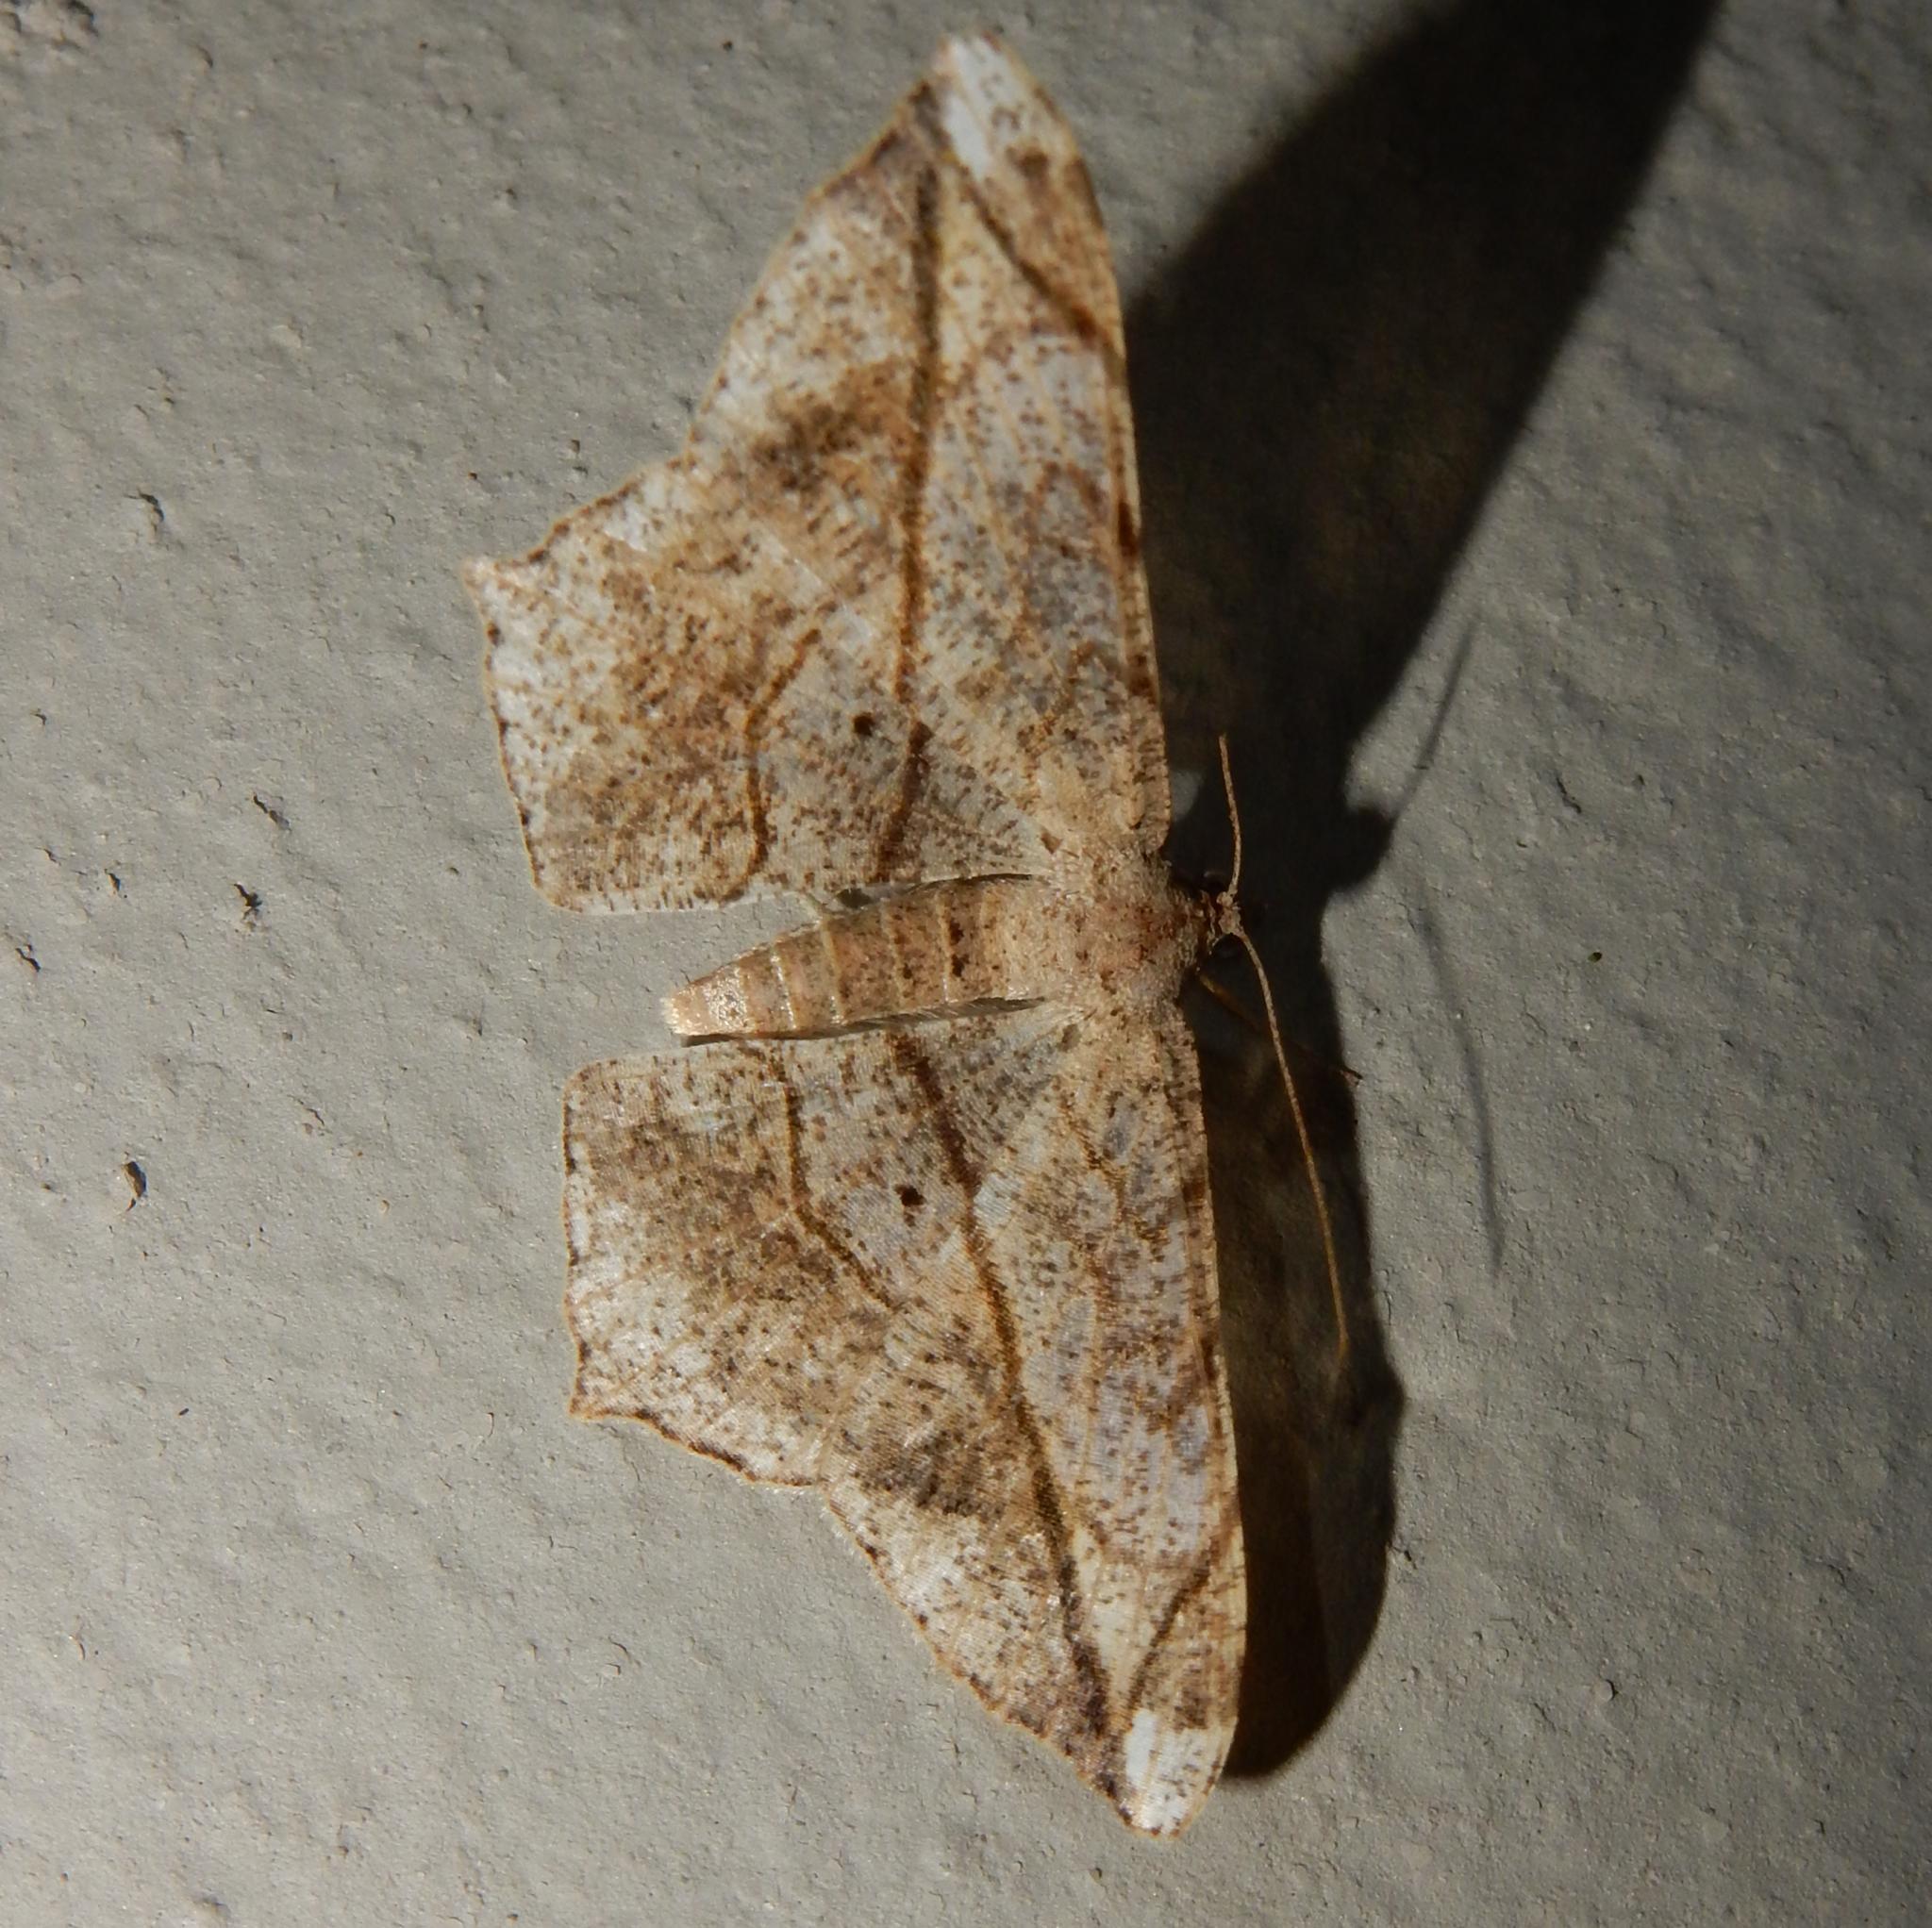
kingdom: Animalia
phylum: Arthropoda
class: Insecta
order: Lepidoptera
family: Geometridae
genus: Chiasmia
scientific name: Chiasmia simplicilinea
